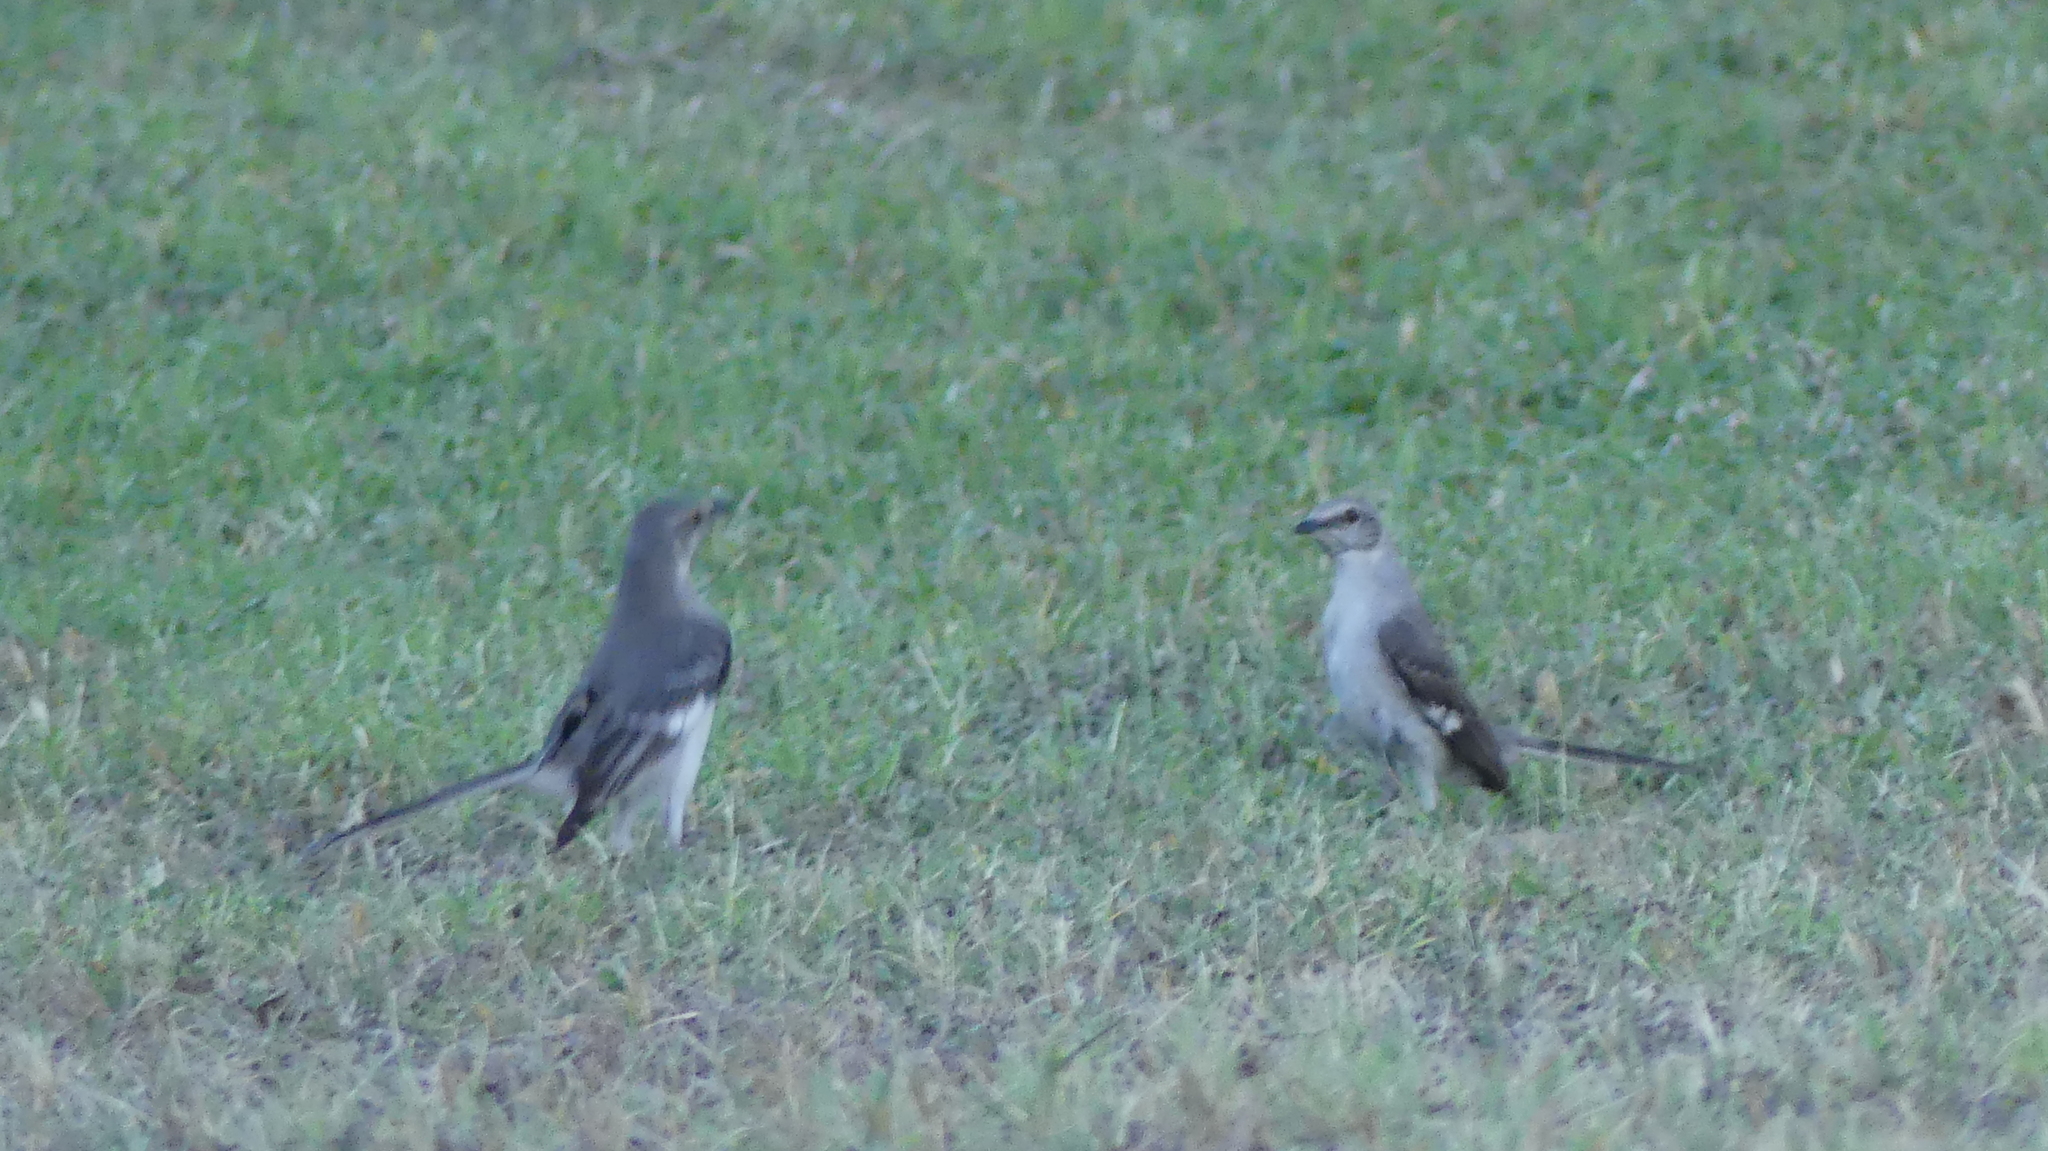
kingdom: Animalia
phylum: Chordata
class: Aves
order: Passeriformes
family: Mimidae
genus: Mimus
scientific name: Mimus polyglottos
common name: Northern mockingbird
